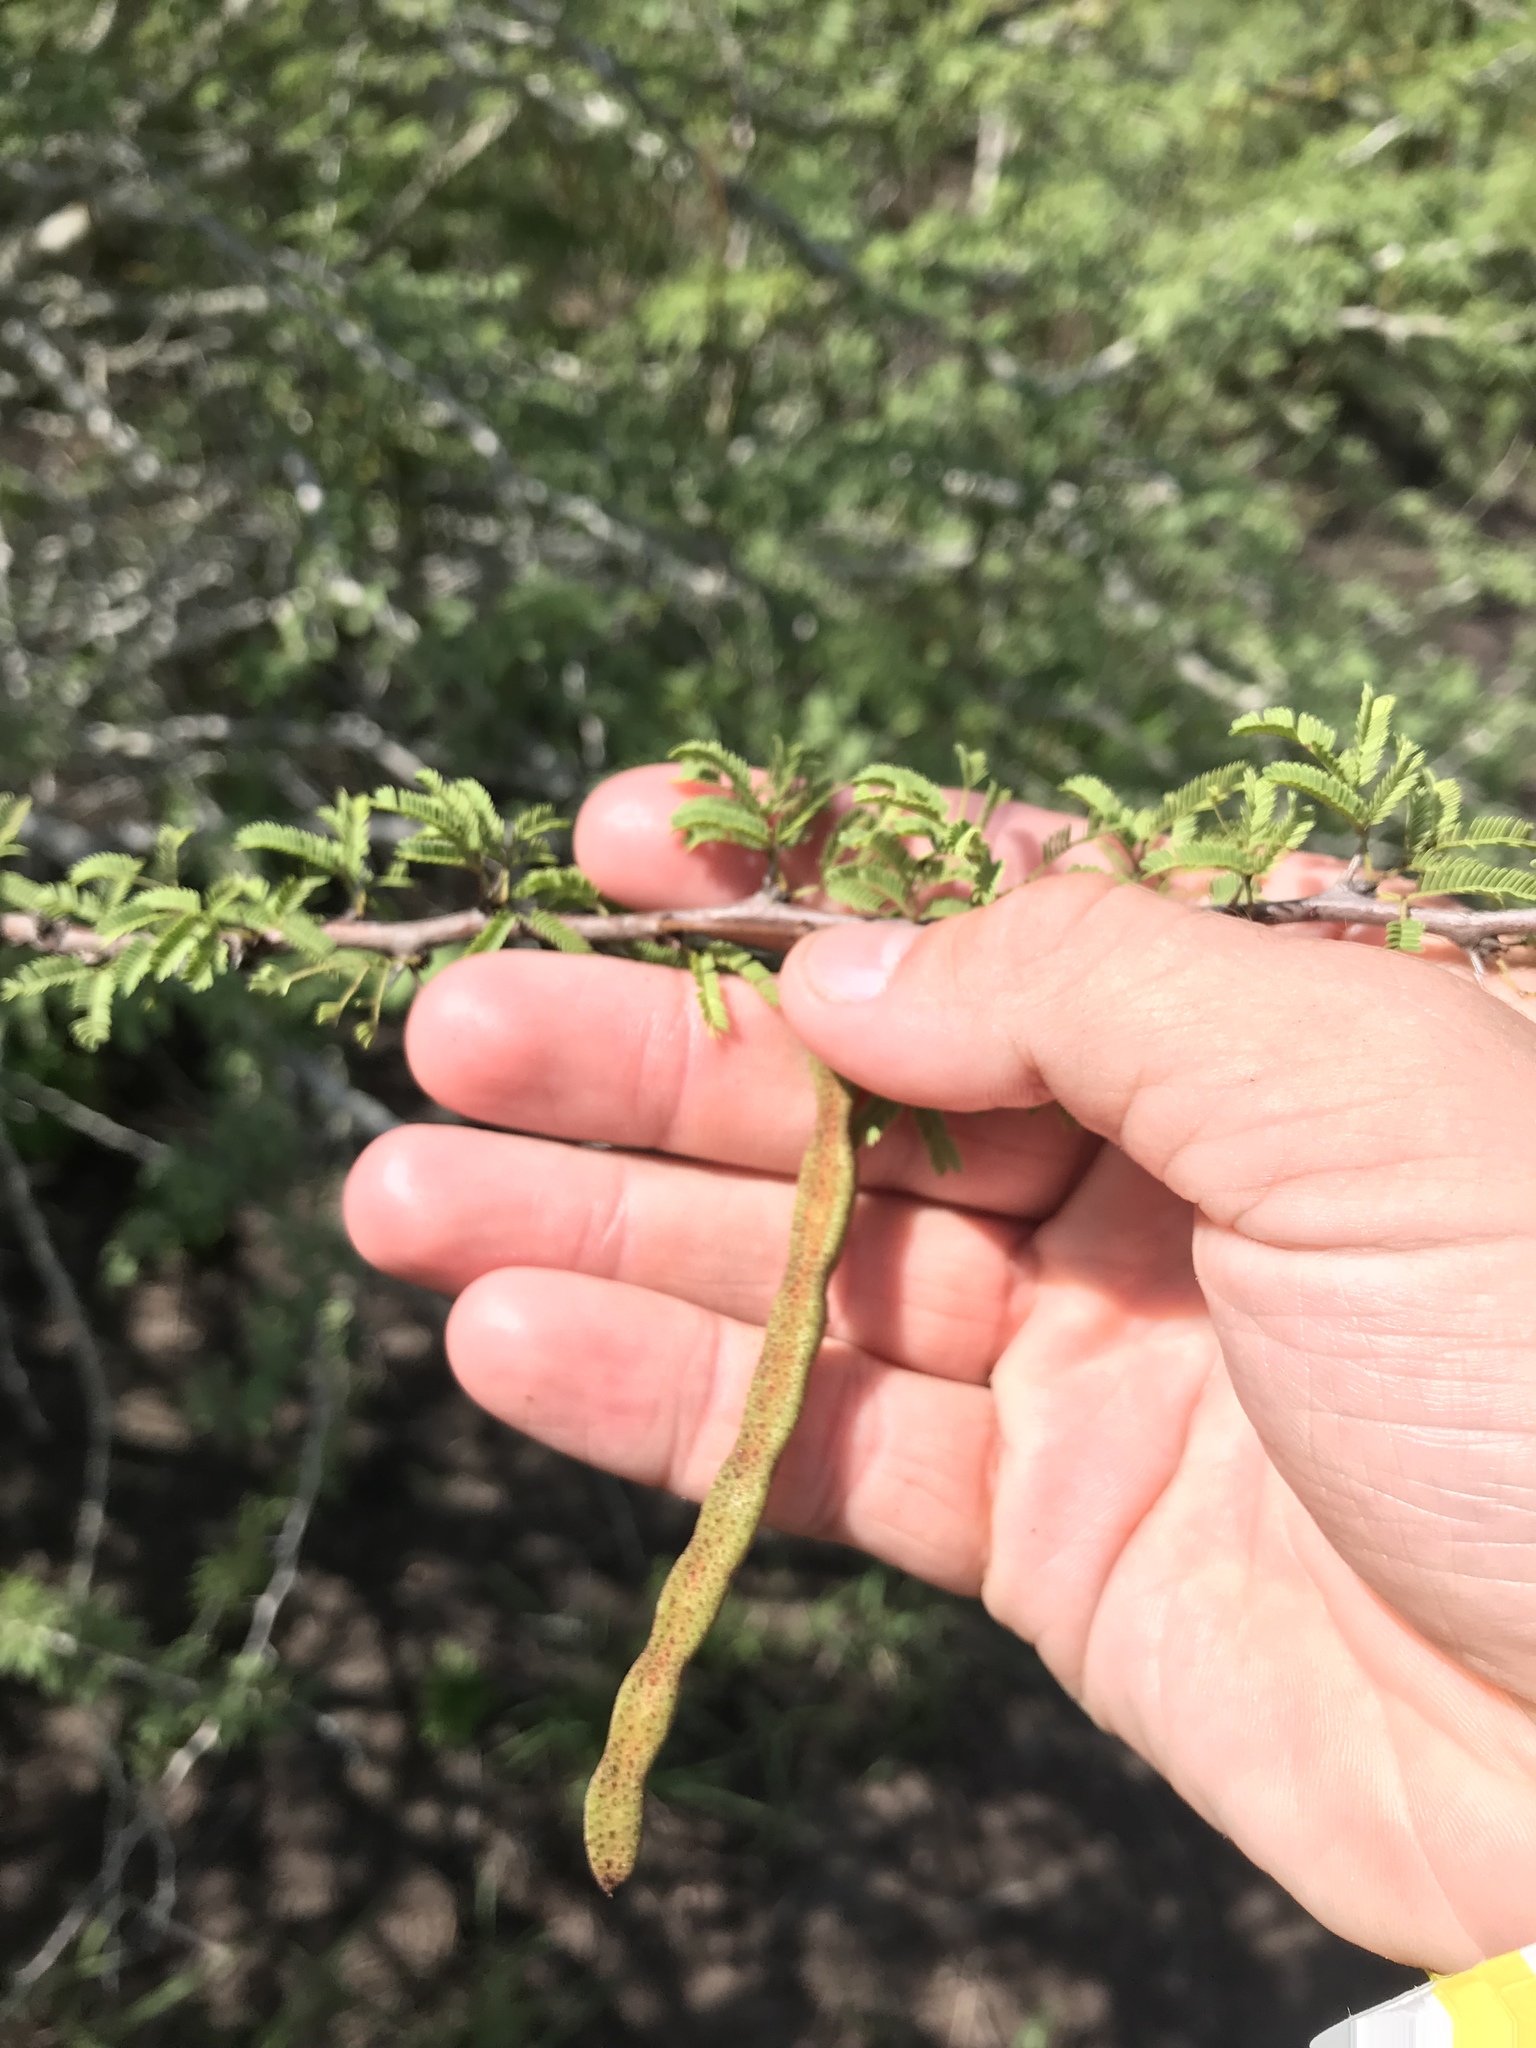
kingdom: Plantae
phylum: Tracheophyta
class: Magnoliopsida
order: Fabales
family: Fabaceae
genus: Vachellia
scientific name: Vachellia schaffneri
